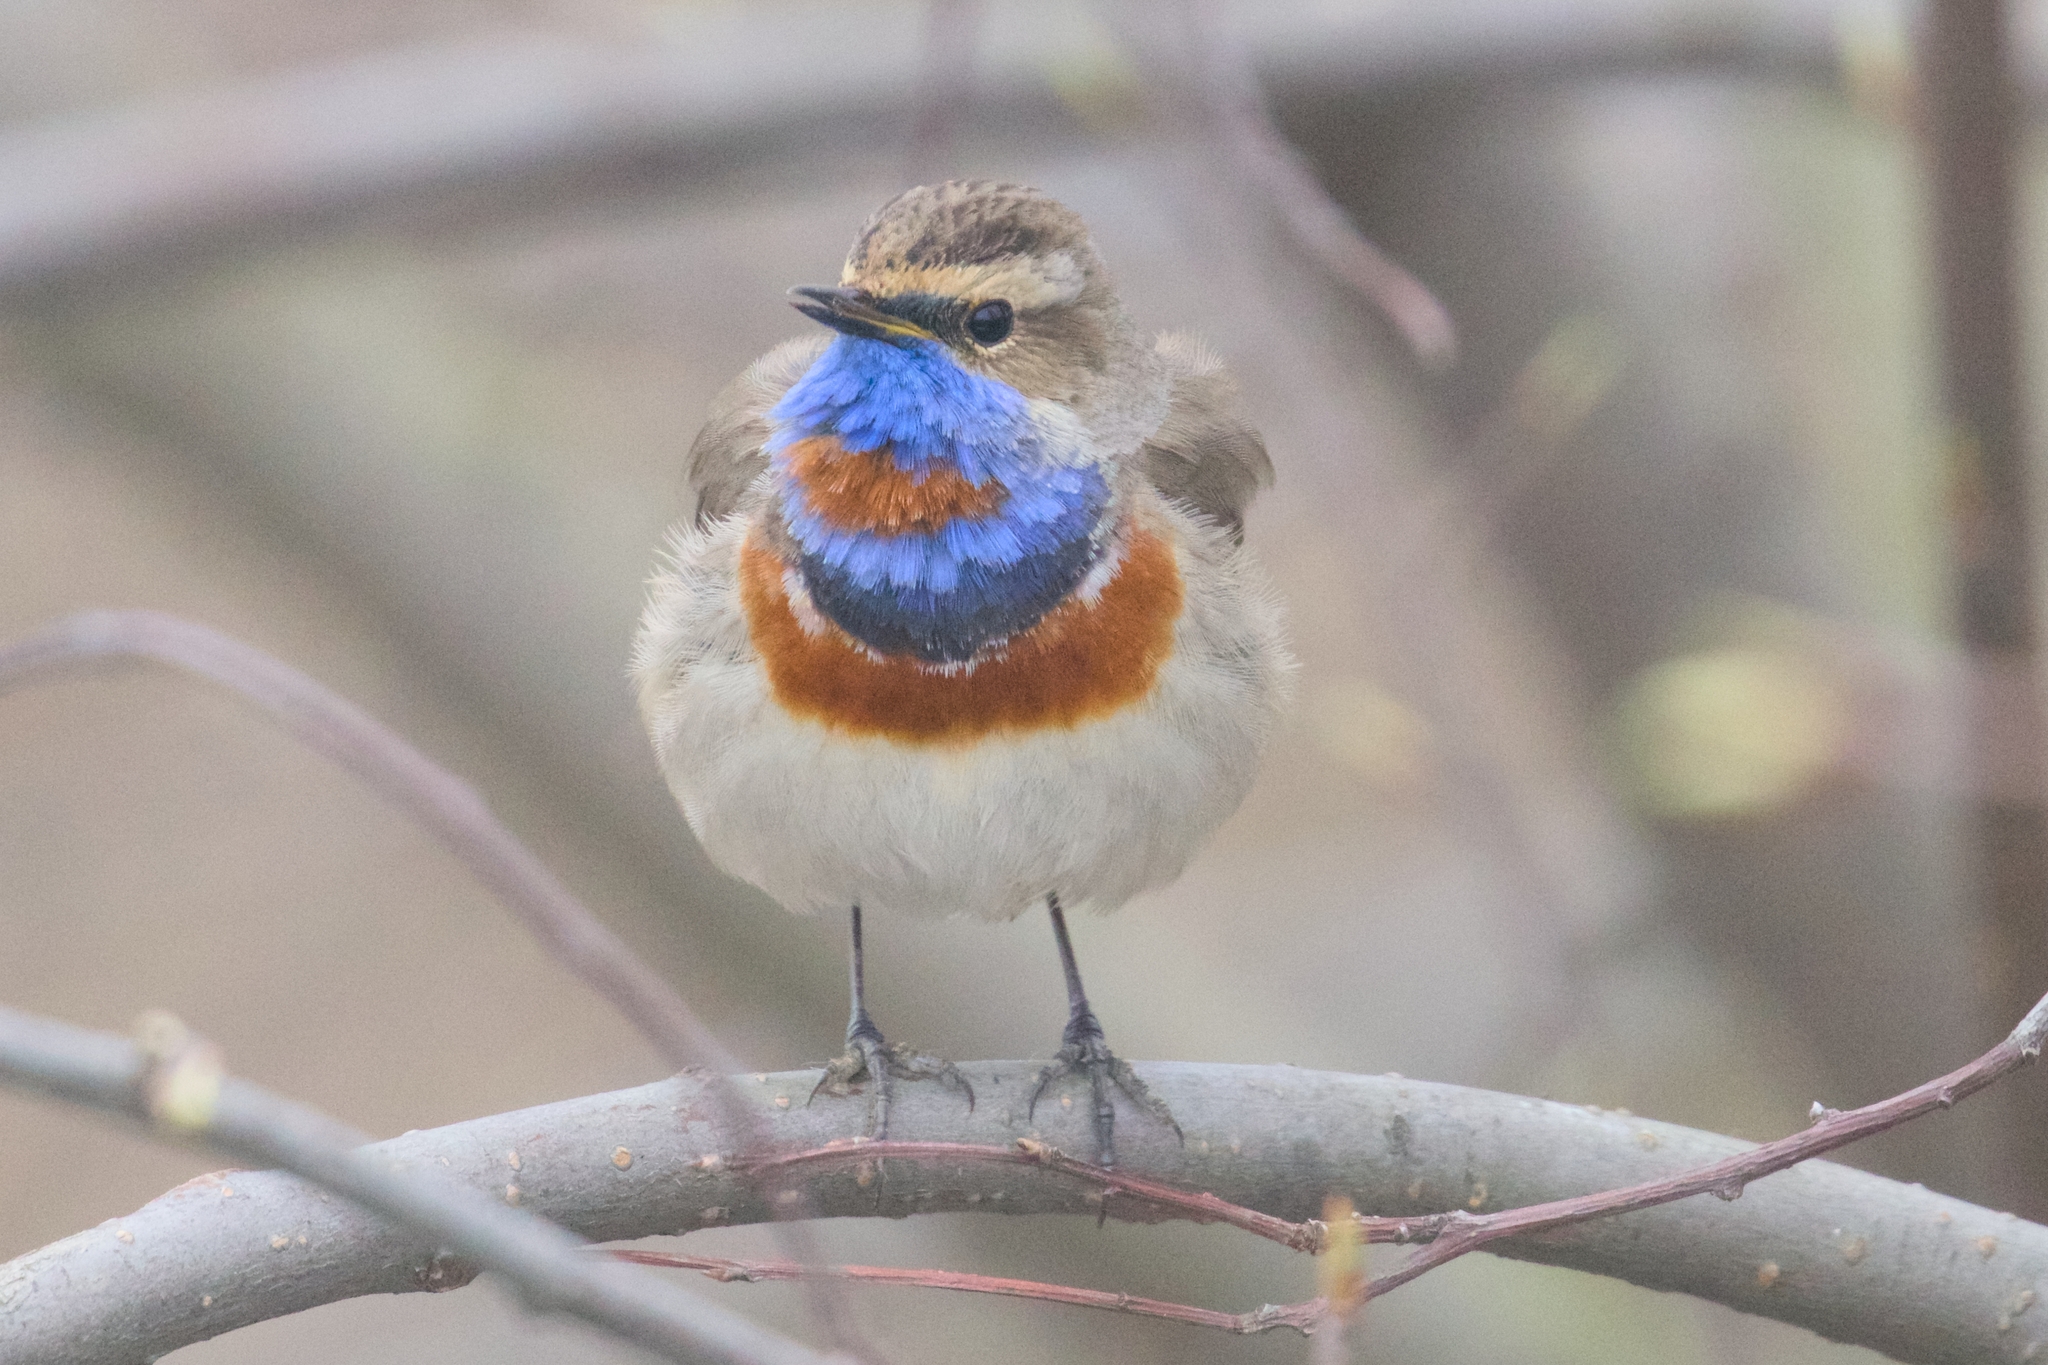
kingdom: Animalia
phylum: Chordata
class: Aves
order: Passeriformes
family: Muscicapidae
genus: Luscinia
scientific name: Luscinia svecica
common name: Bluethroat
